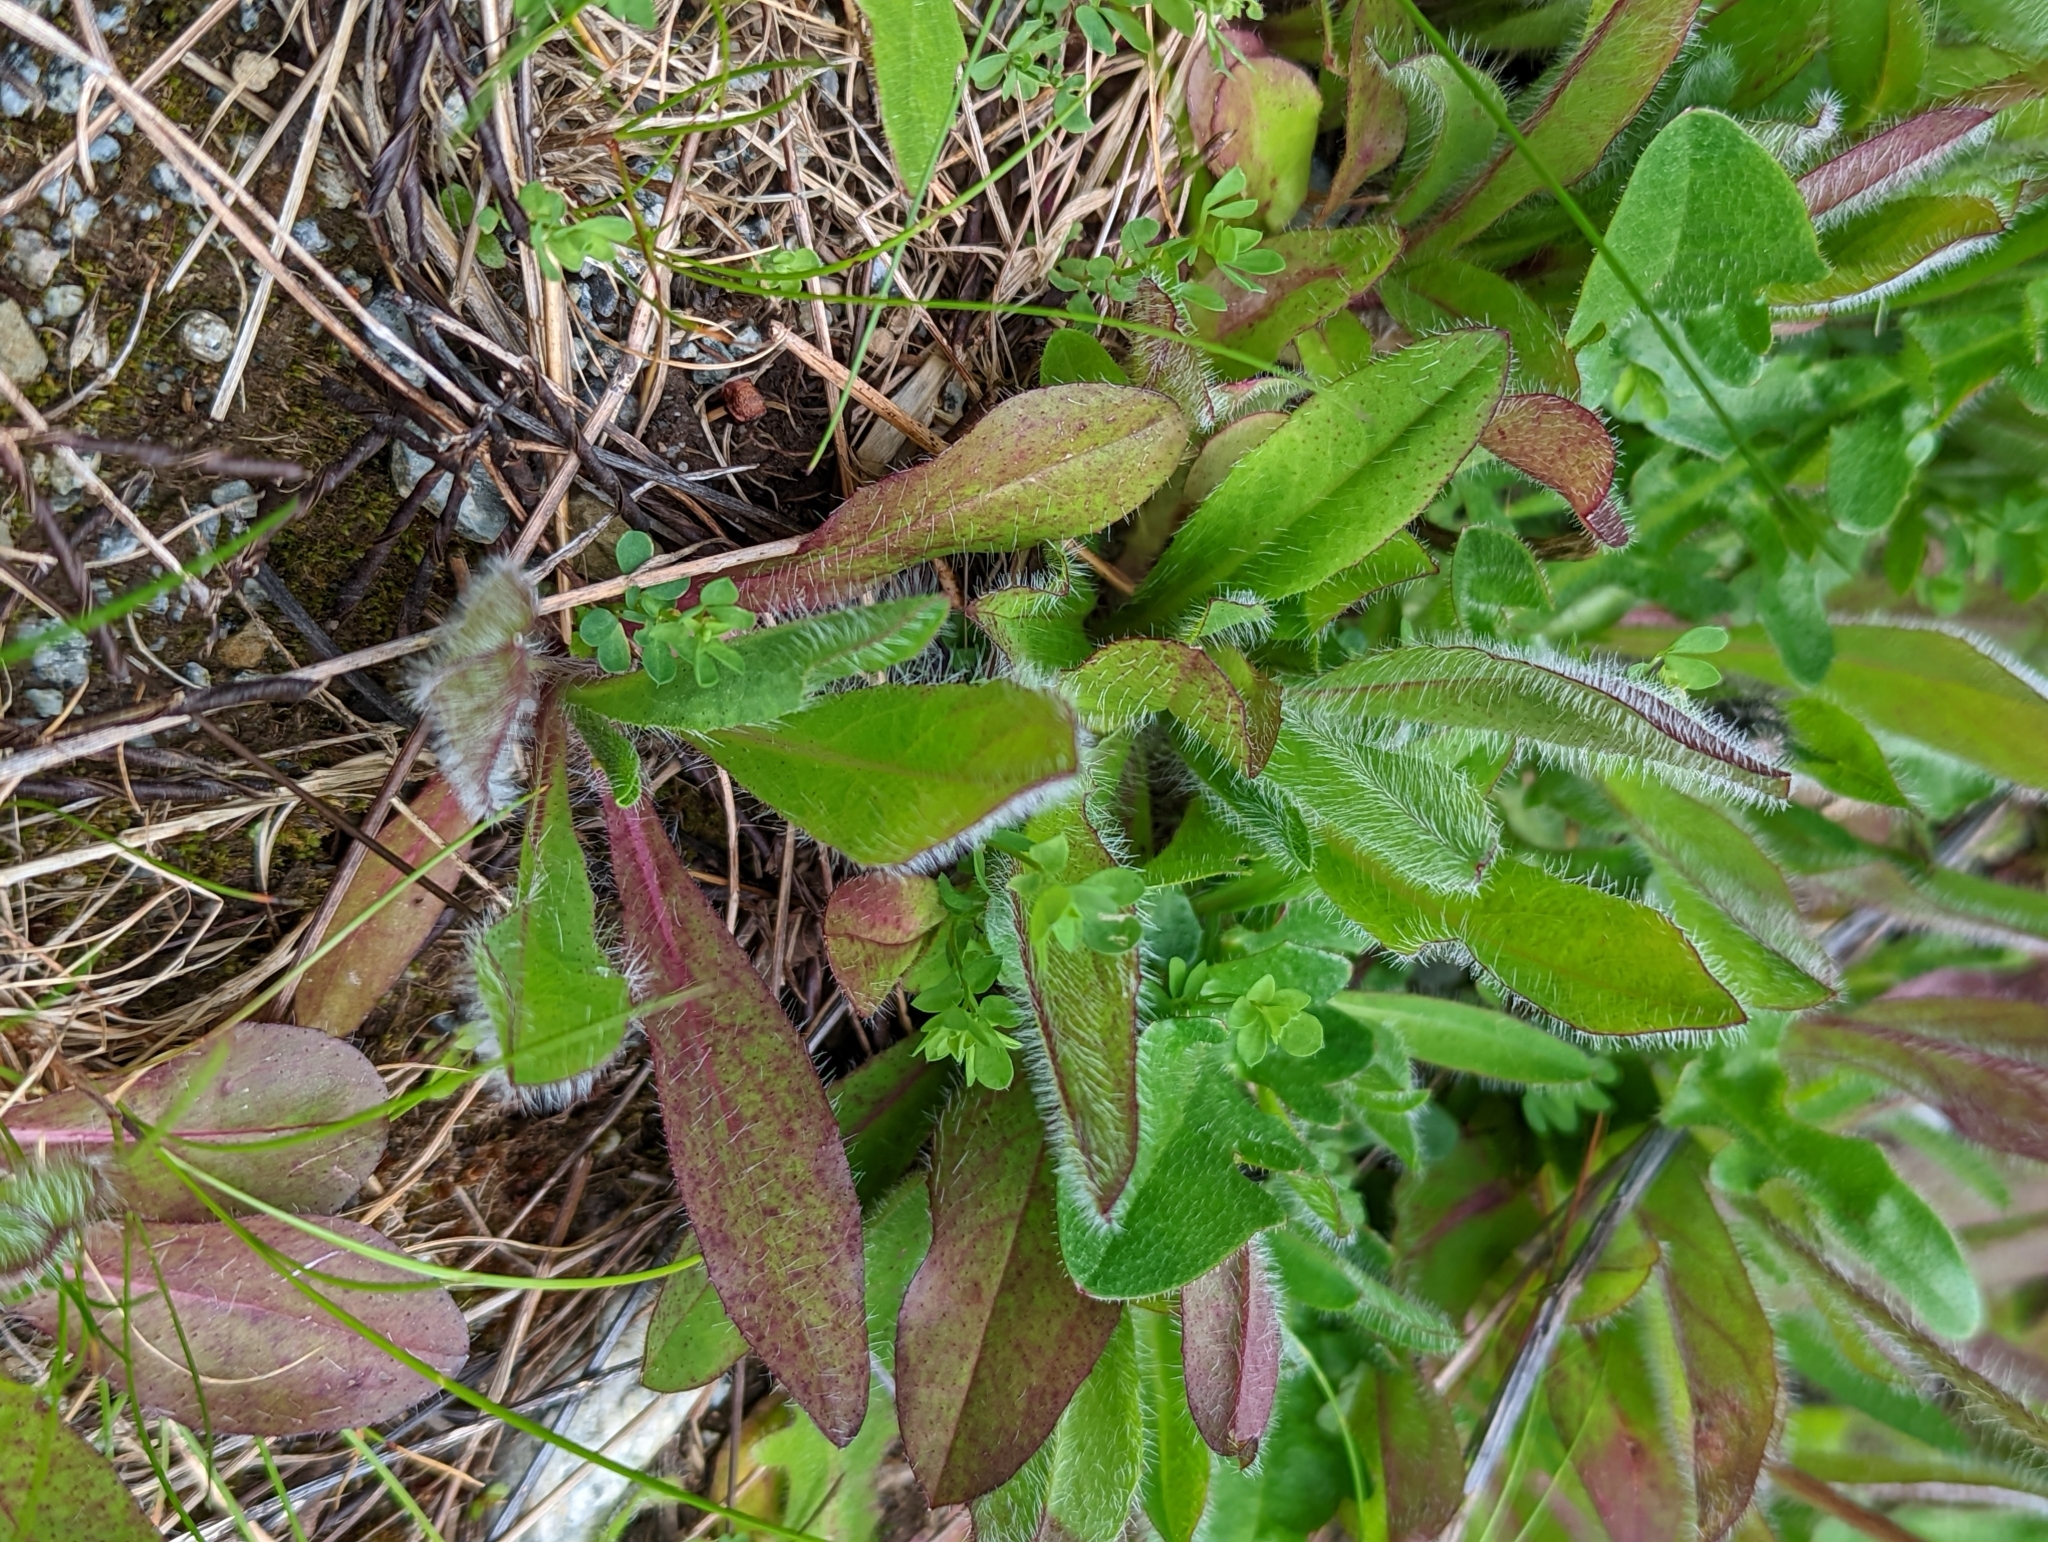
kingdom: Plantae
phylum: Tracheophyta
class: Magnoliopsida
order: Asterales
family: Asteraceae
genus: Pilosella
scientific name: Pilosella aurantiaca
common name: Fox-and-cubs
